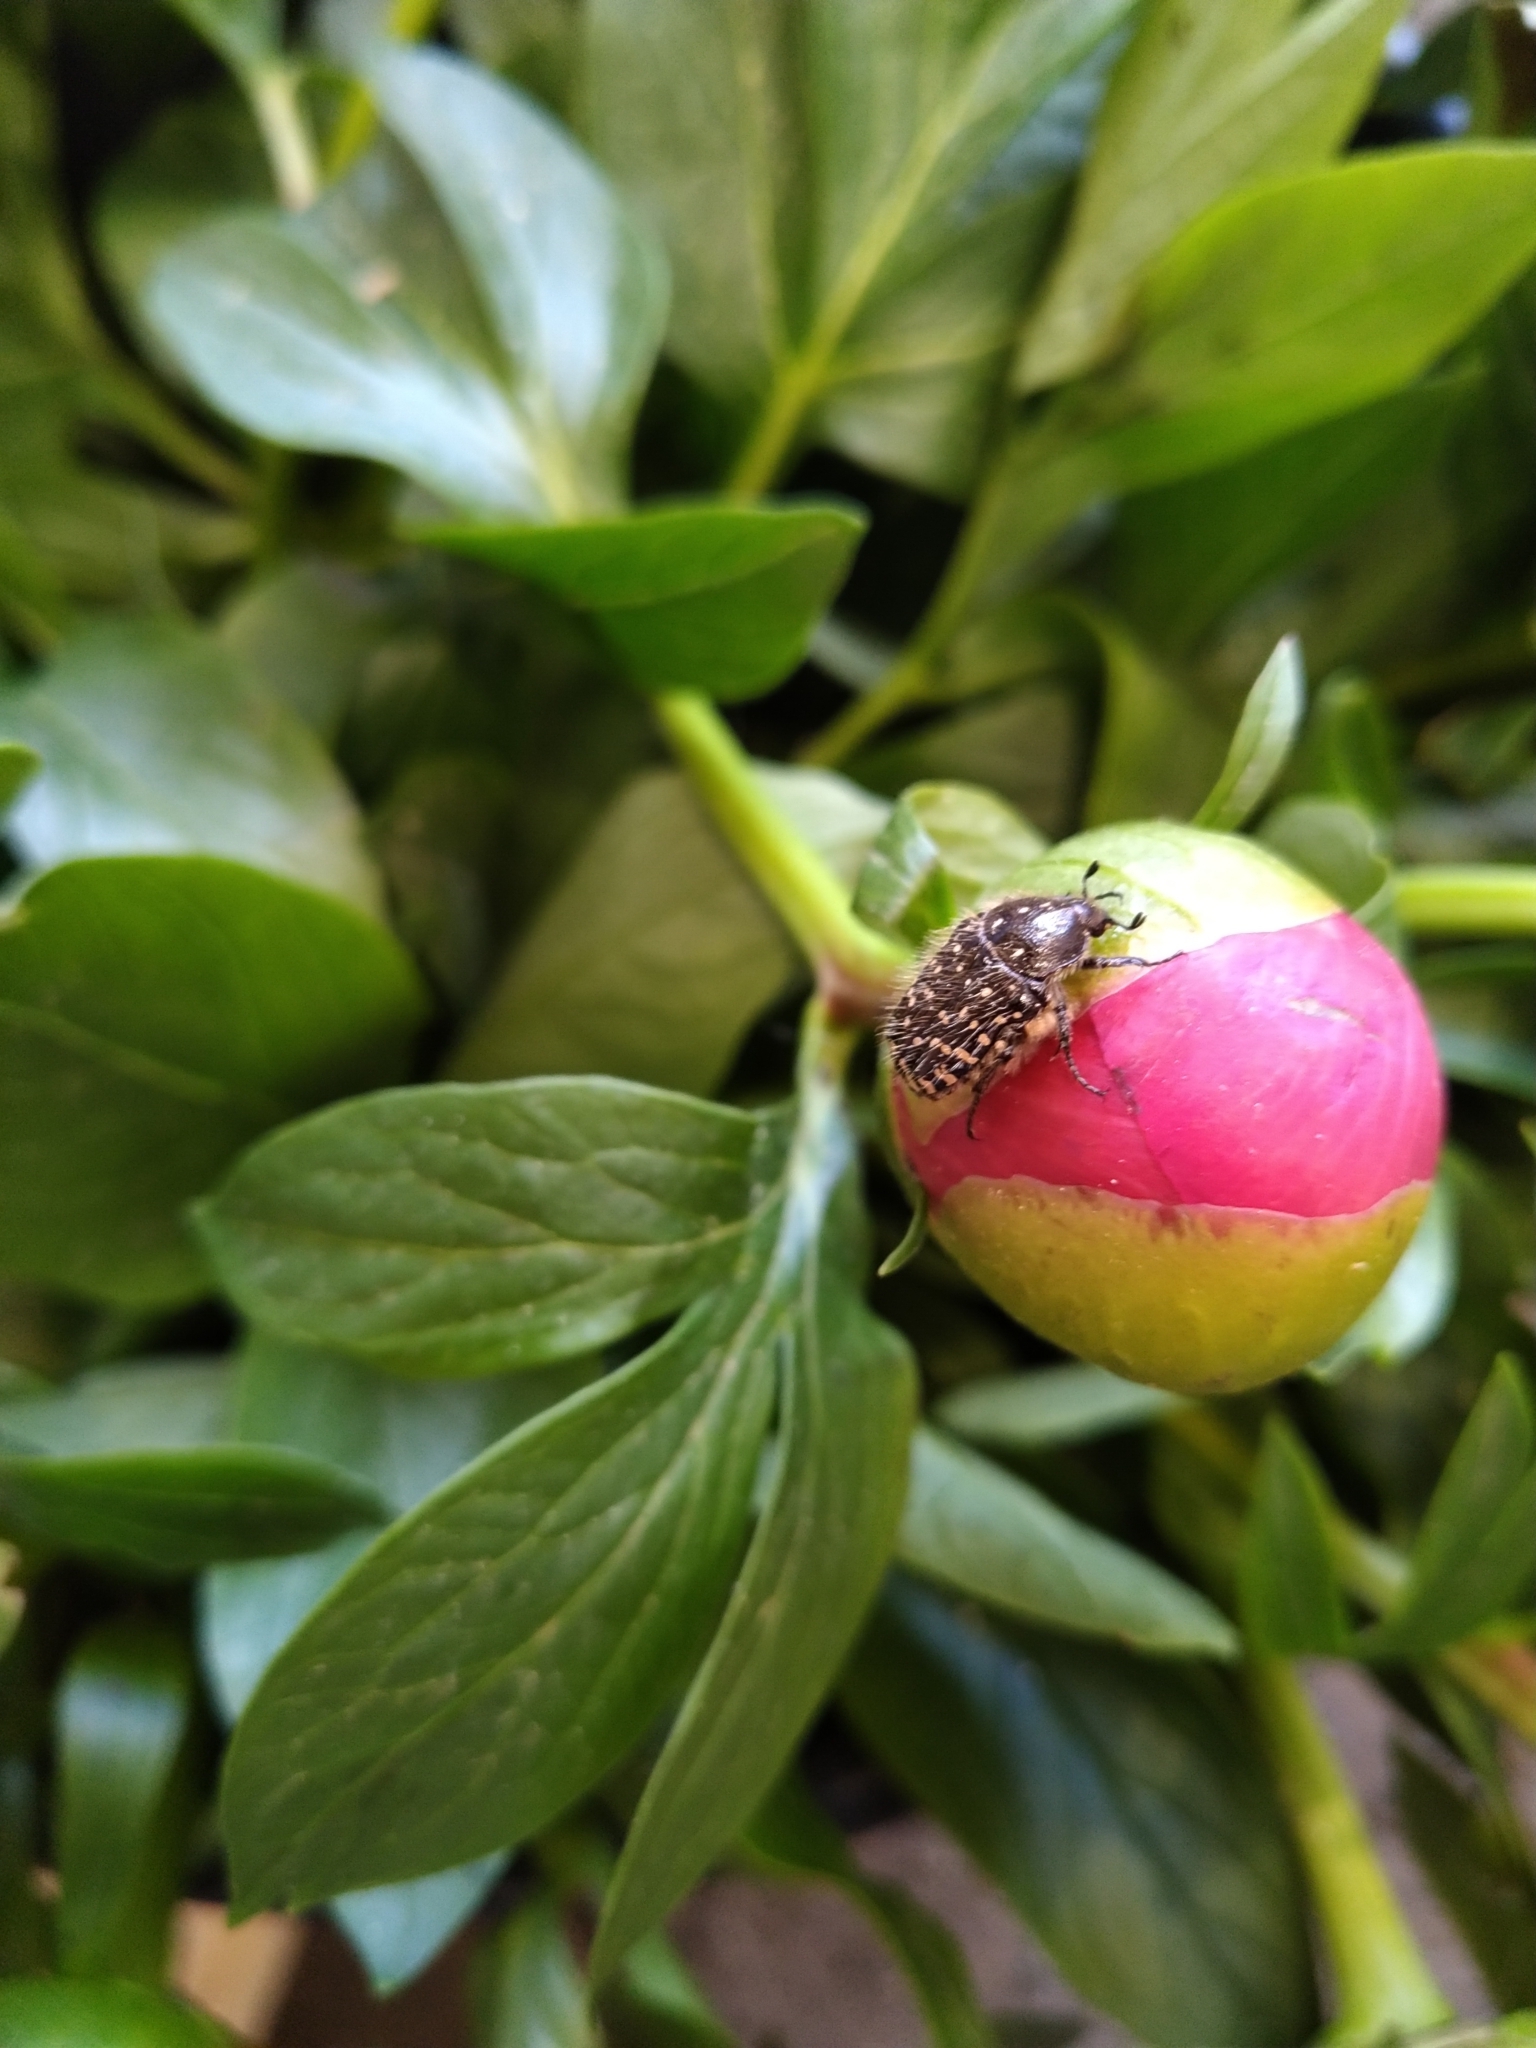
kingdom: Animalia
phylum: Arthropoda
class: Insecta
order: Coleoptera
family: Scarabaeidae
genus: Oxythyrea
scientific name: Oxythyrea funesta
